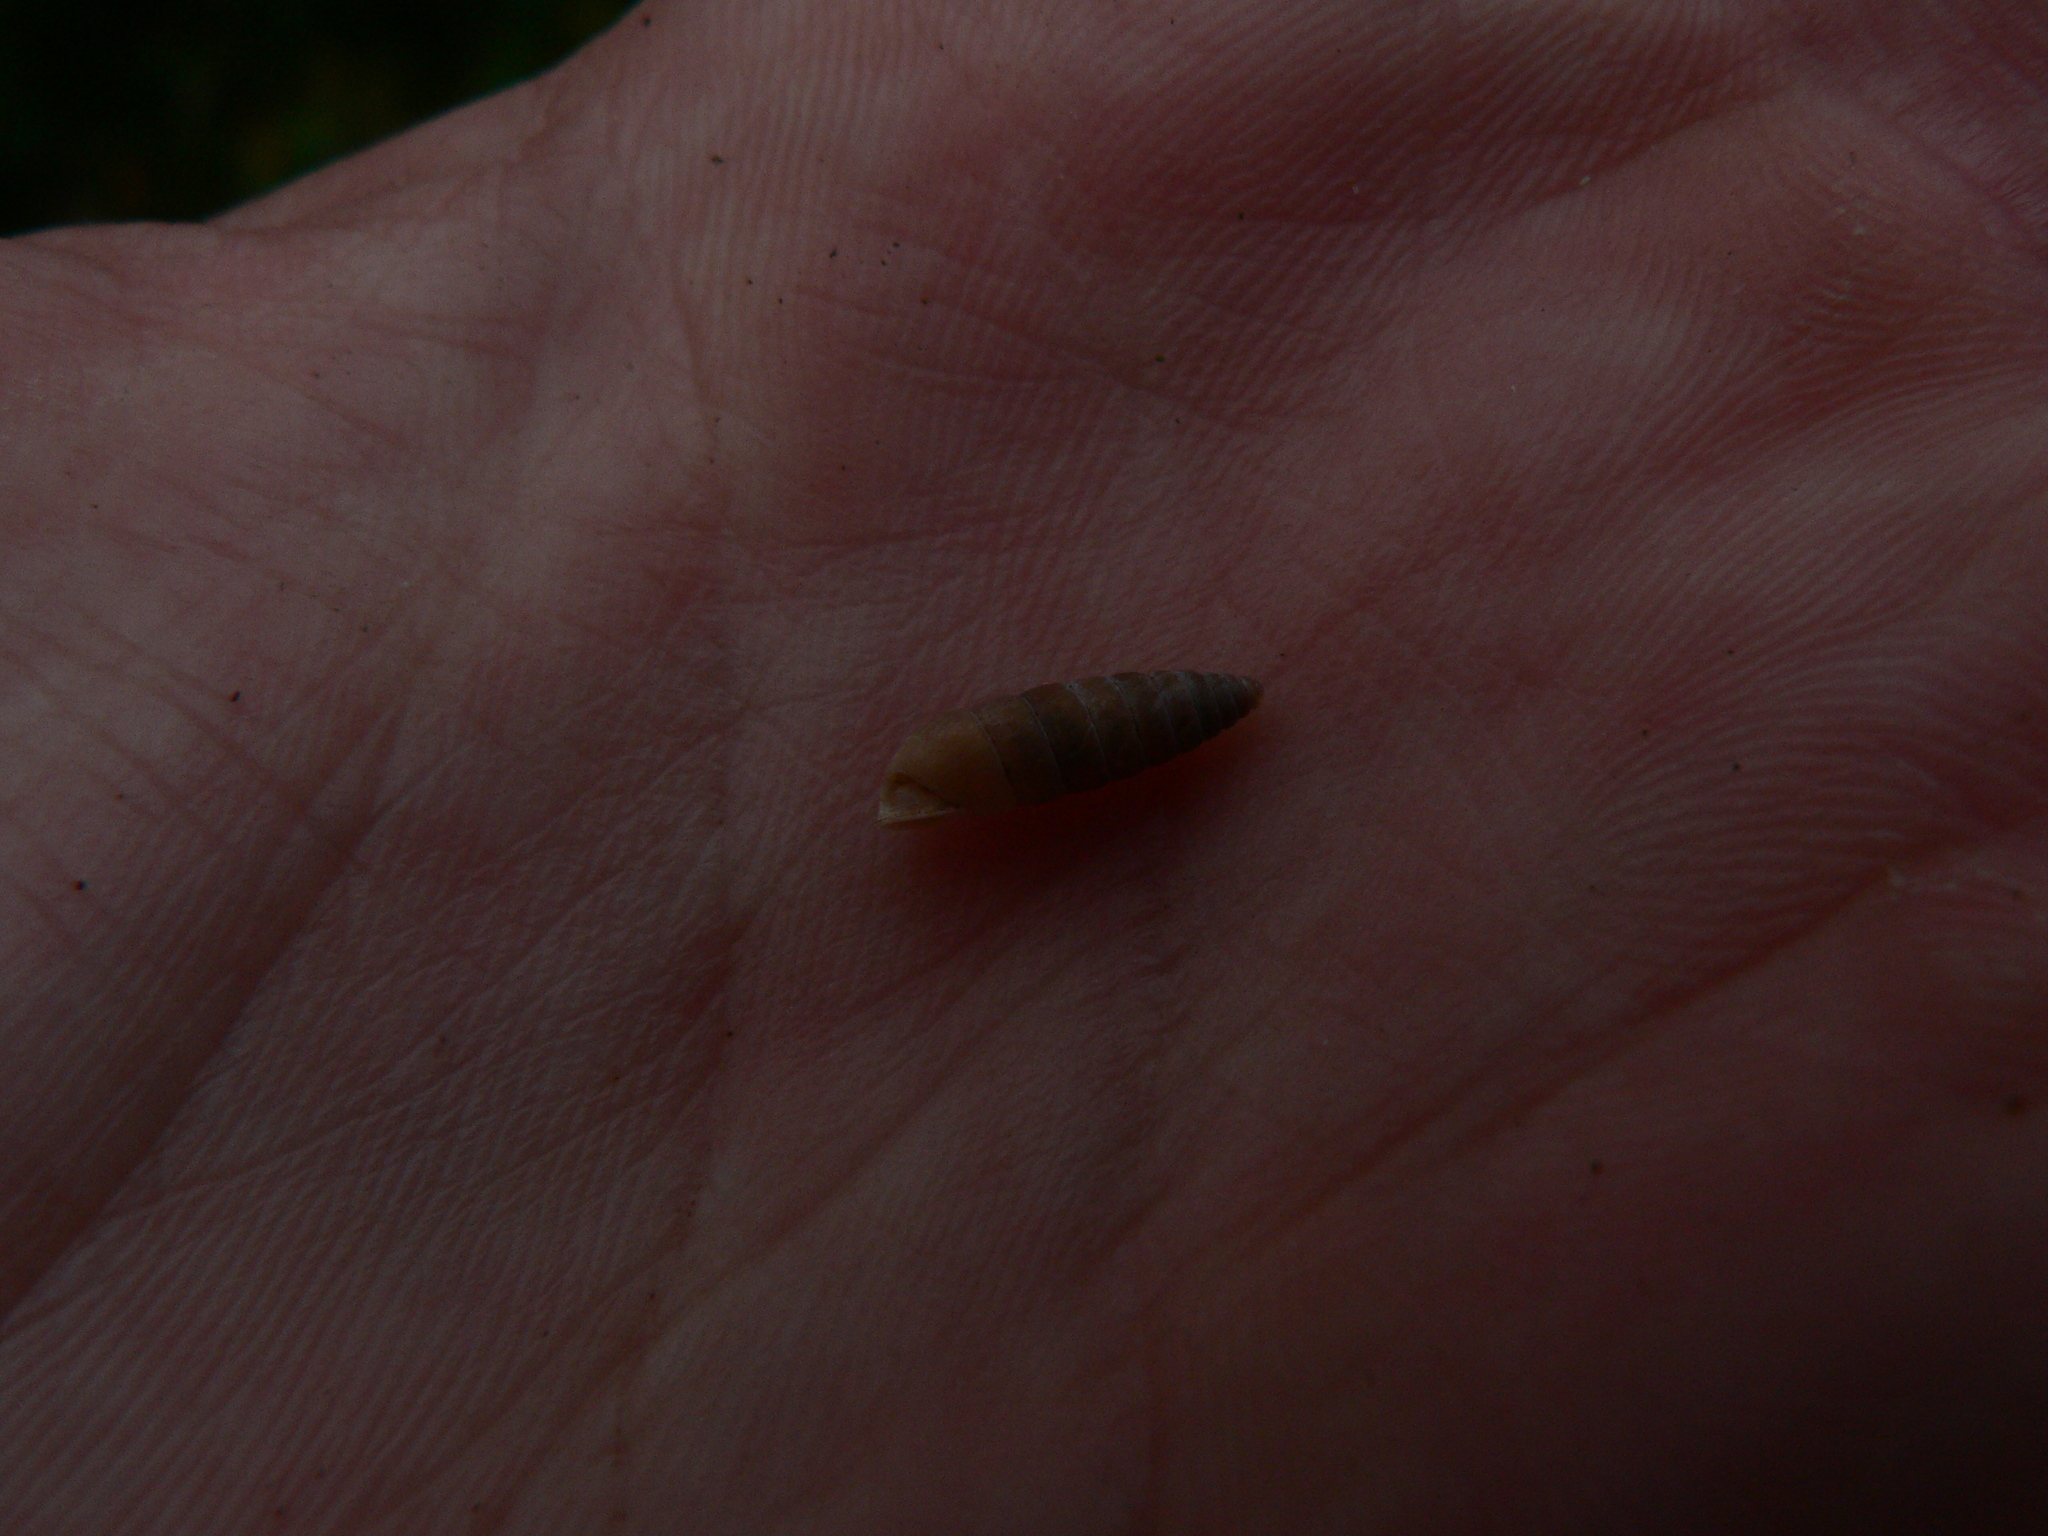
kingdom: Animalia
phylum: Mollusca
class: Gastropoda
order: Stylommatophora
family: Chondrinidae
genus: Granaria
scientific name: Granaria variabilis
